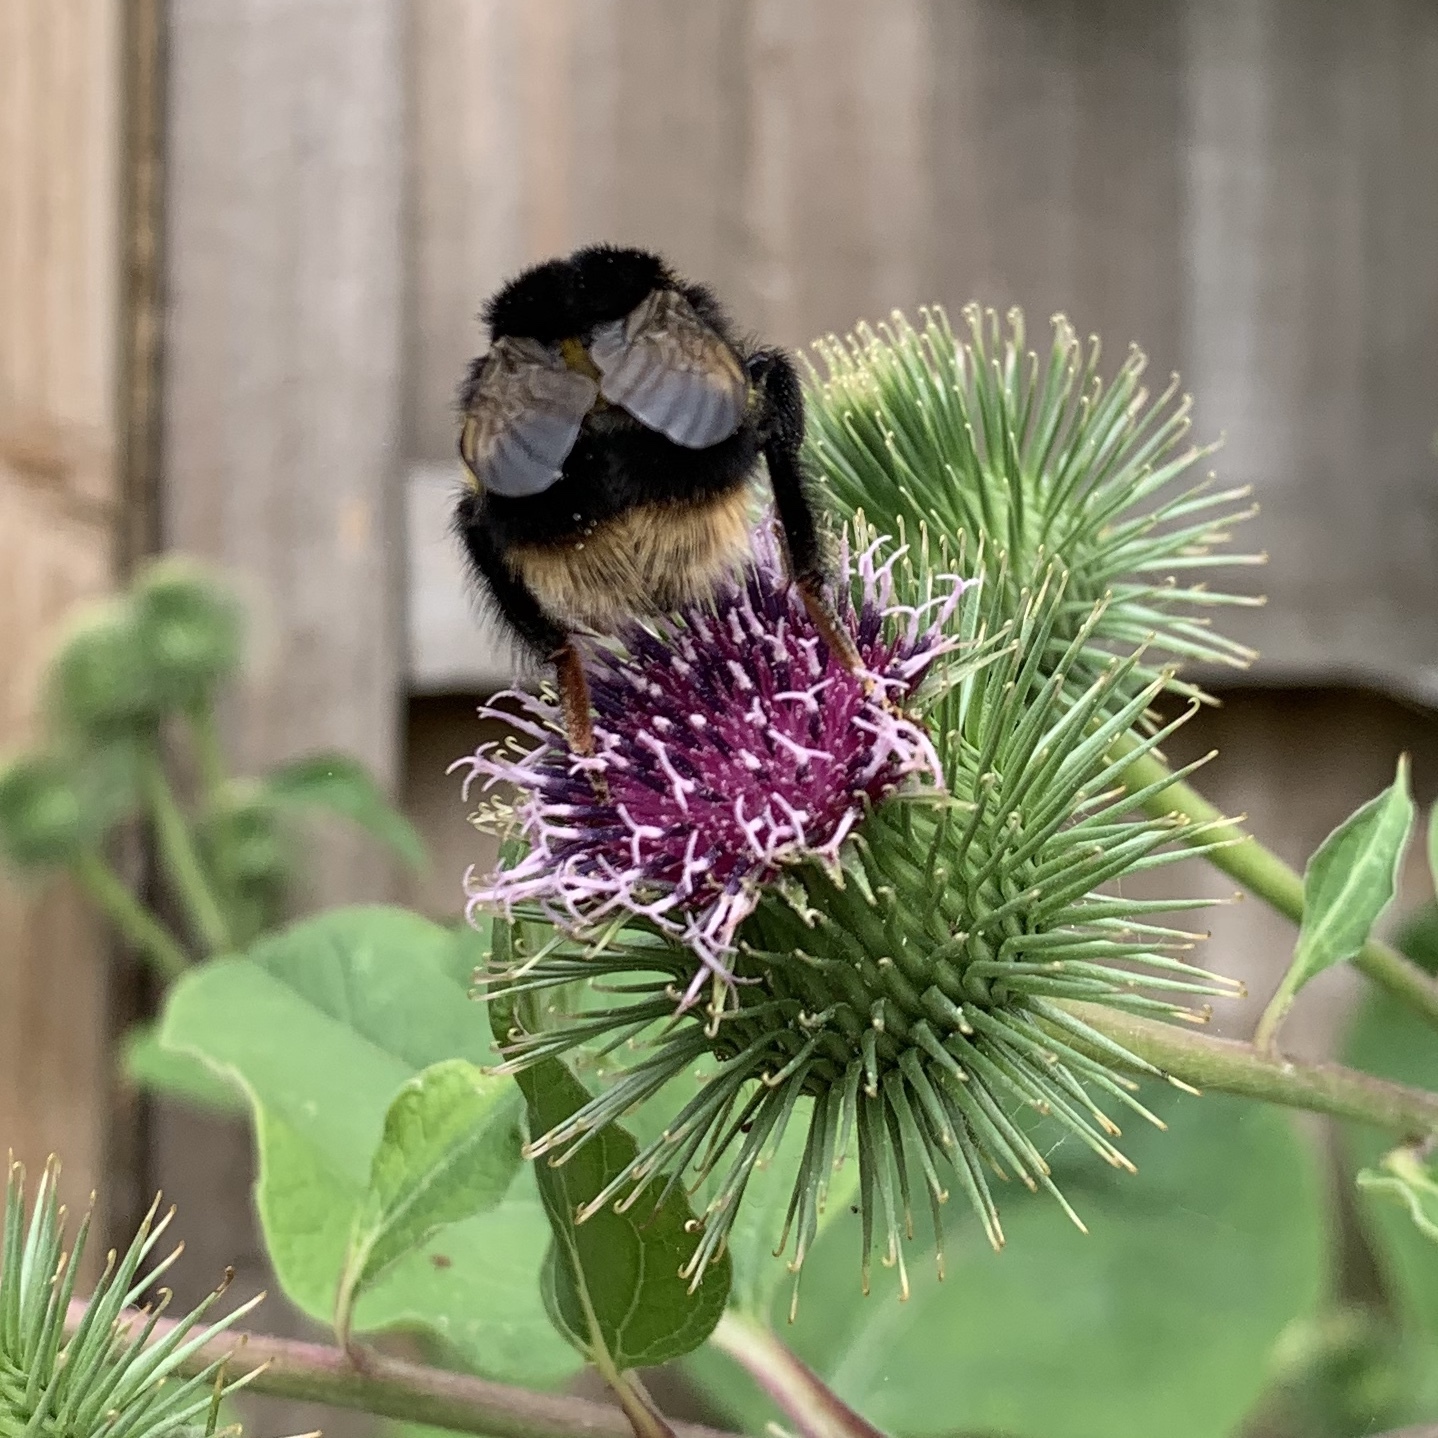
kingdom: Animalia
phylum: Arthropoda
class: Insecta
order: Hymenoptera
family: Apidae
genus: Bombus
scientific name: Bombus terrestris
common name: Buff-tailed bumblebee
